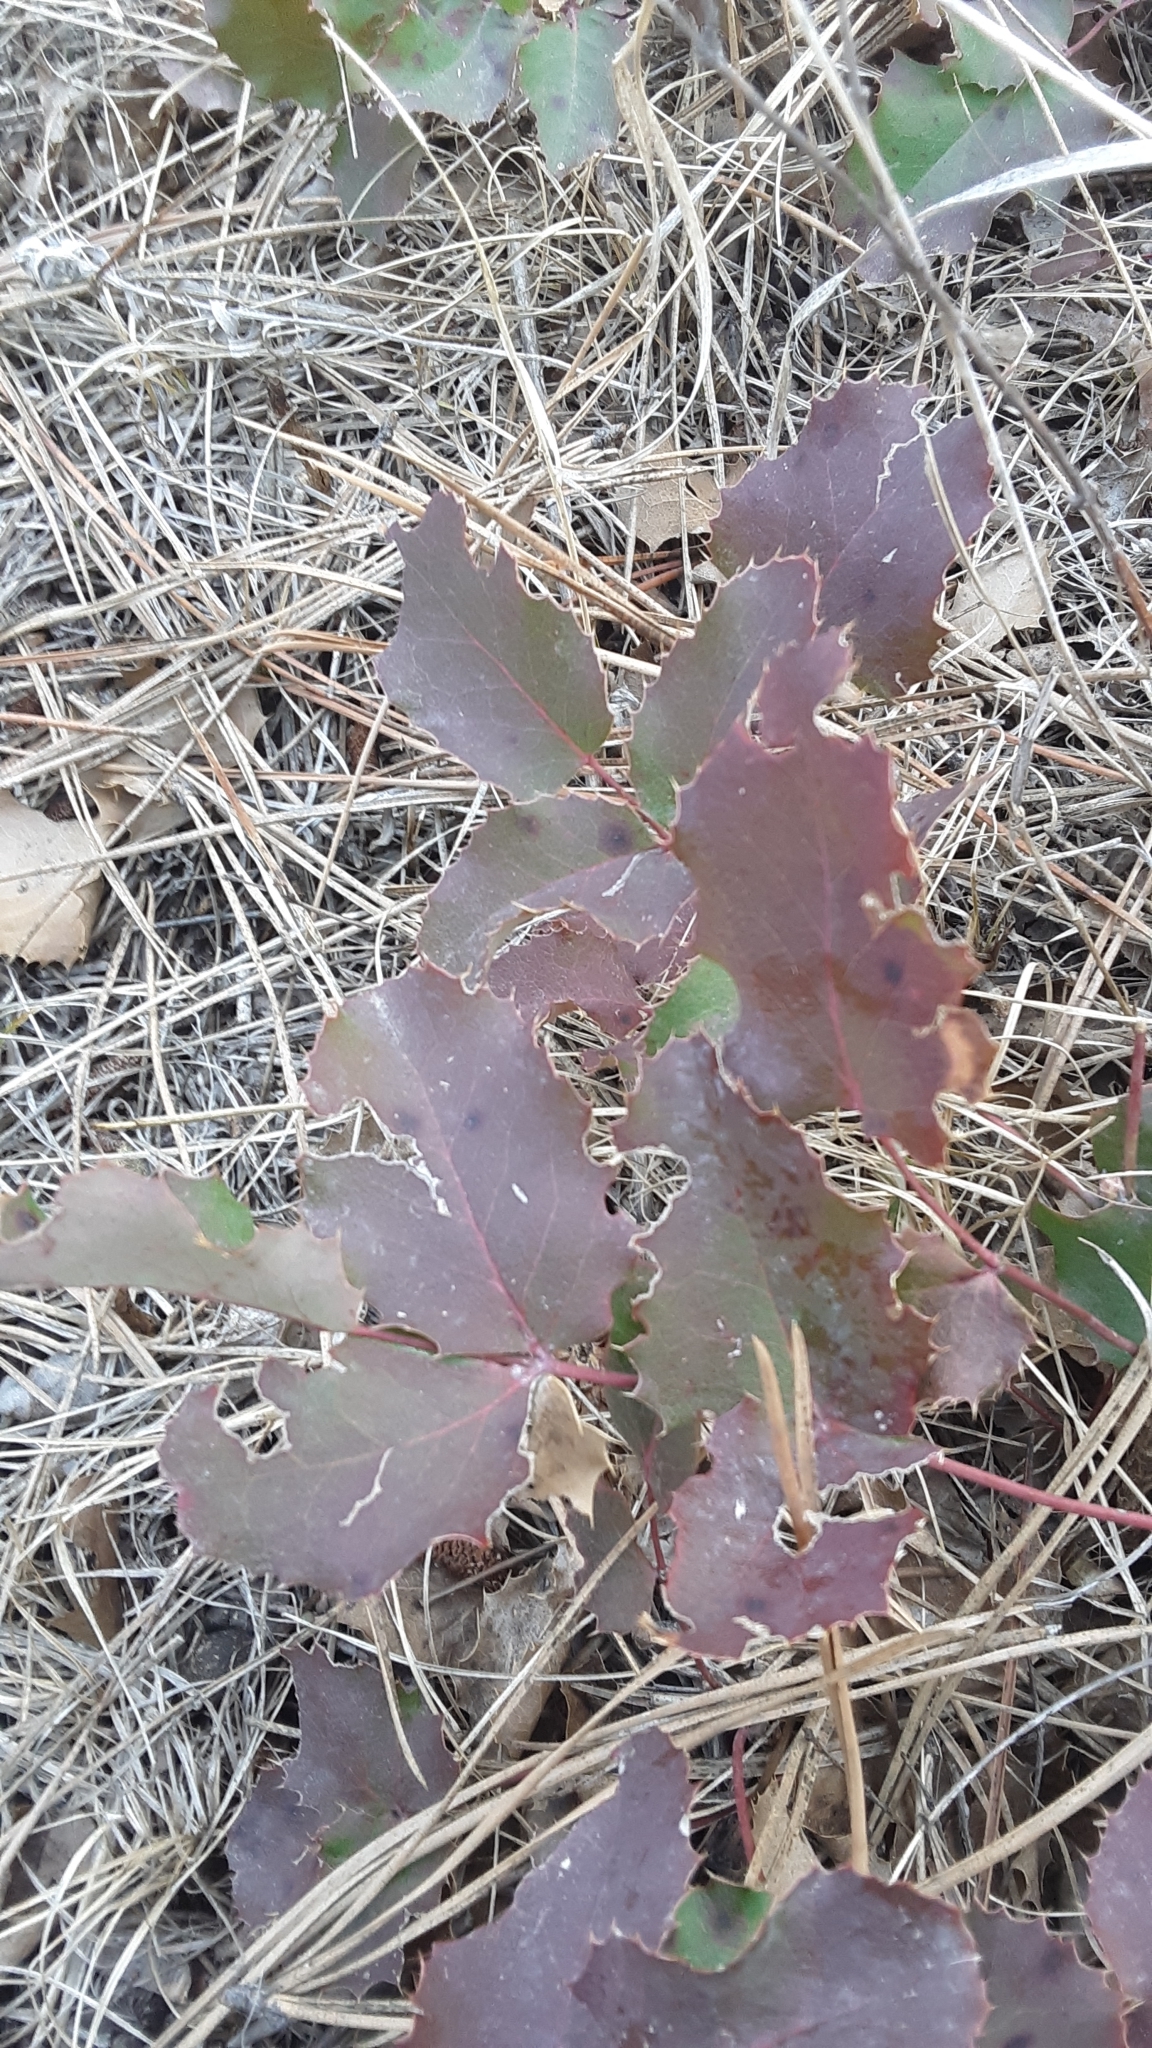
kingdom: Plantae
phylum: Tracheophyta
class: Magnoliopsida
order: Ranunculales
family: Berberidaceae
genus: Mahonia
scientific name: Mahonia repens
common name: Creeping oregon-grape
